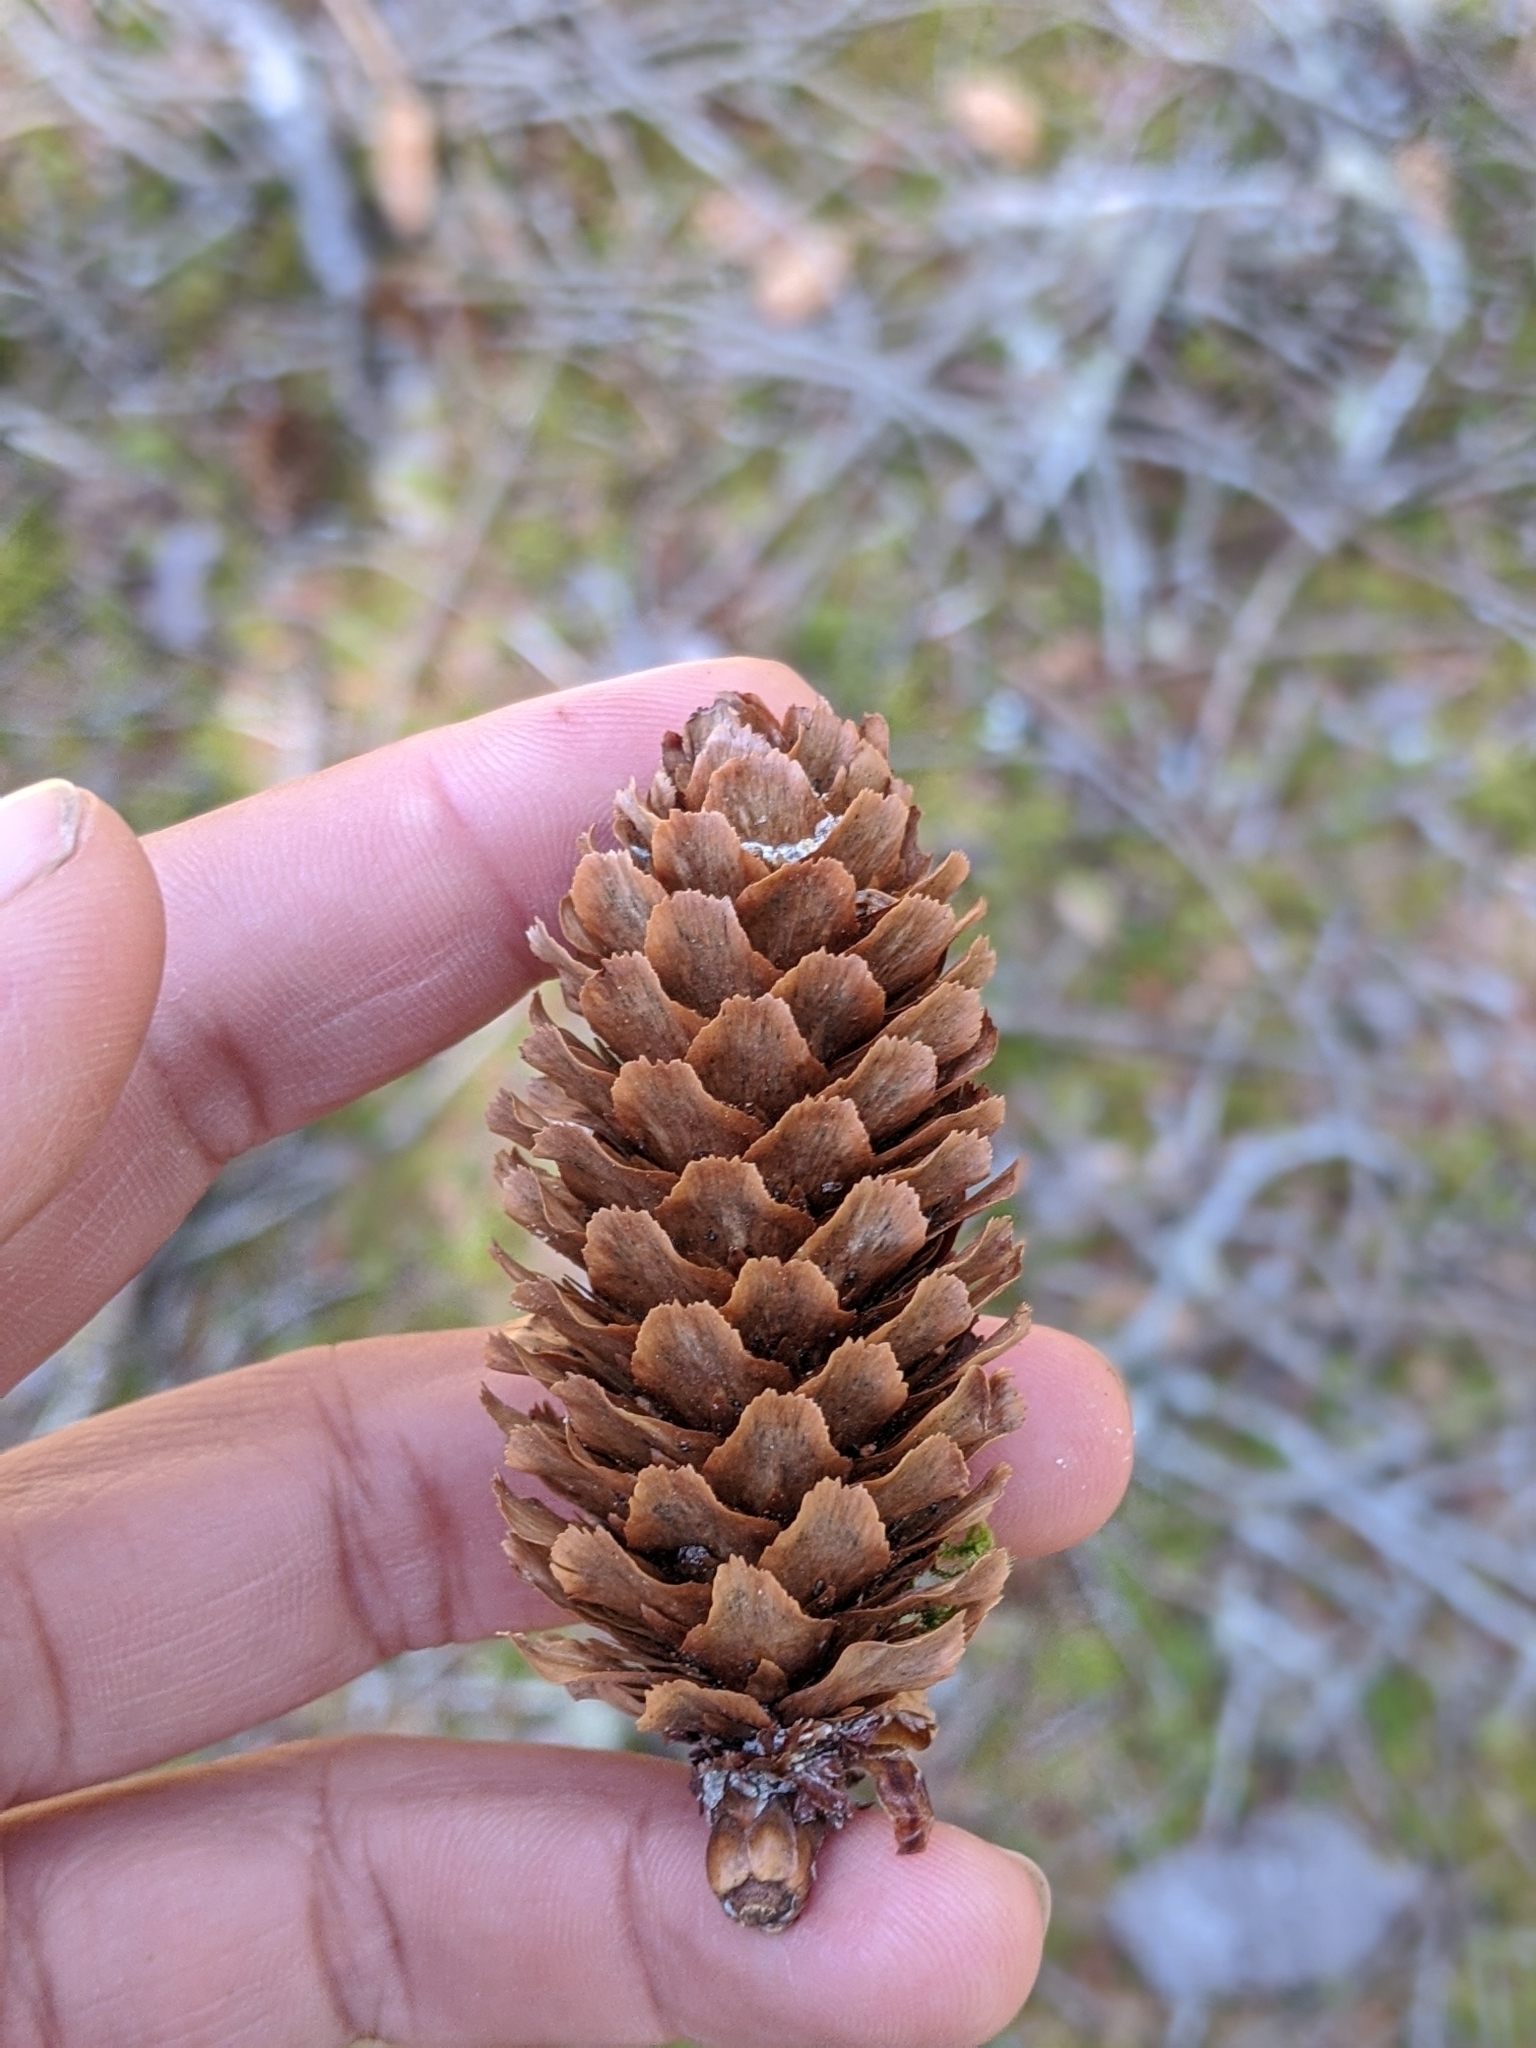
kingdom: Plantae
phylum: Tracheophyta
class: Pinopsida
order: Pinales
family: Pinaceae
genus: Picea
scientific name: Picea sitchensis
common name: Sitka spruce
